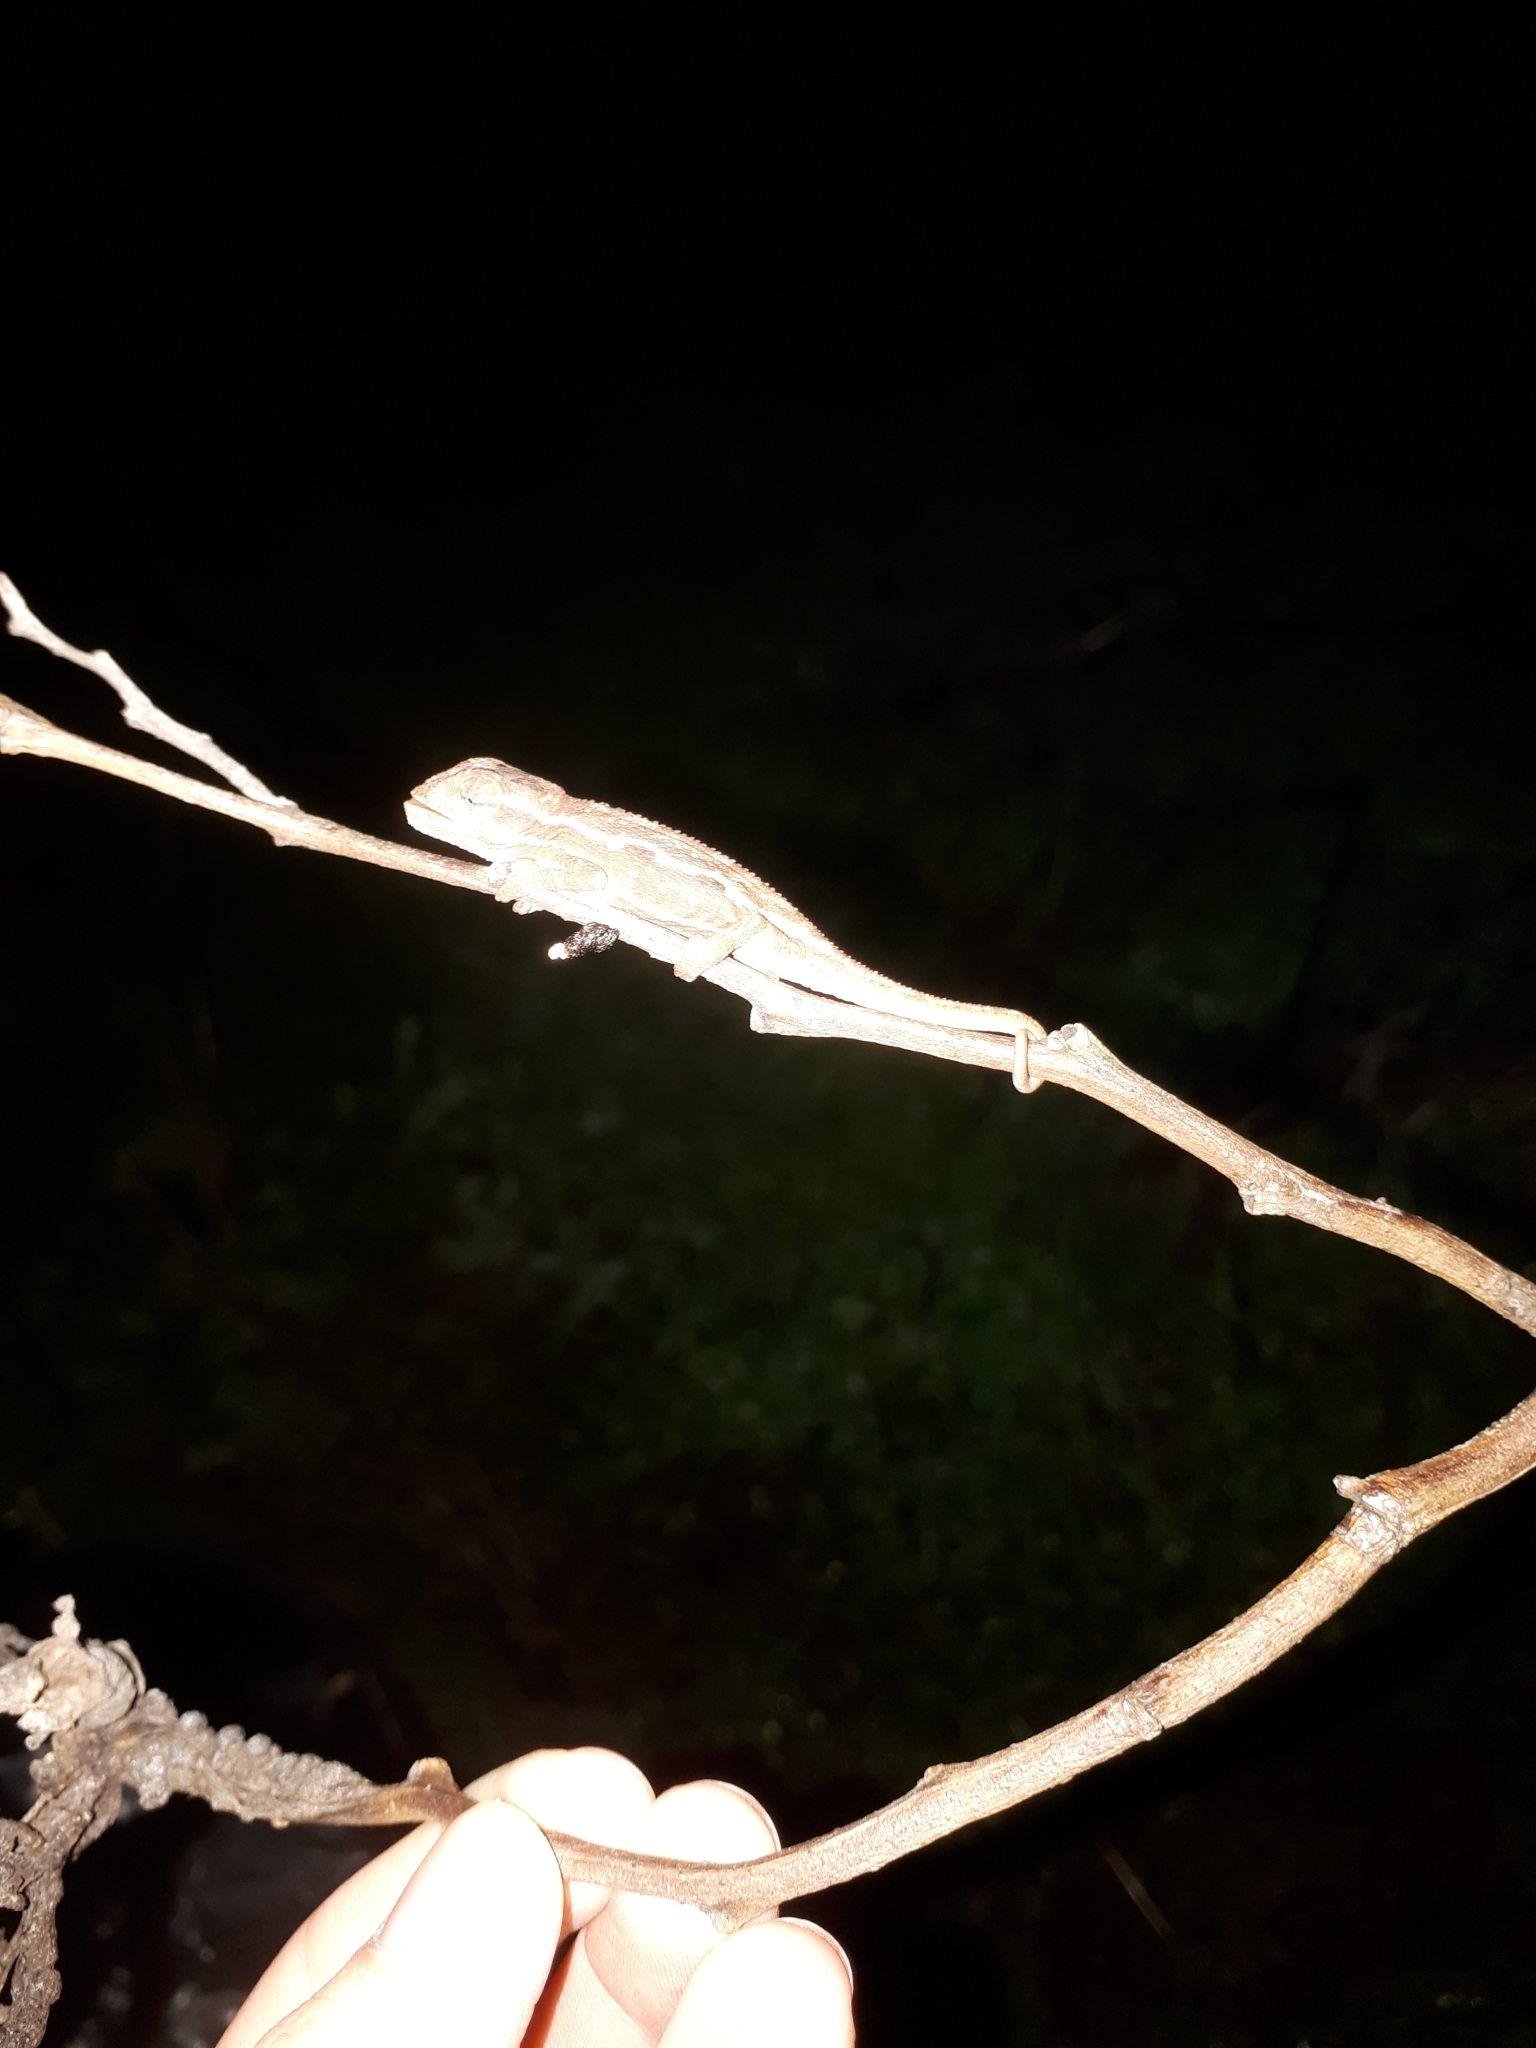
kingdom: Animalia
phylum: Chordata
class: Squamata
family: Chamaeleonidae
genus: Bradypodion
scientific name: Bradypodion pumilum
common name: Cape dwarf chameleon
